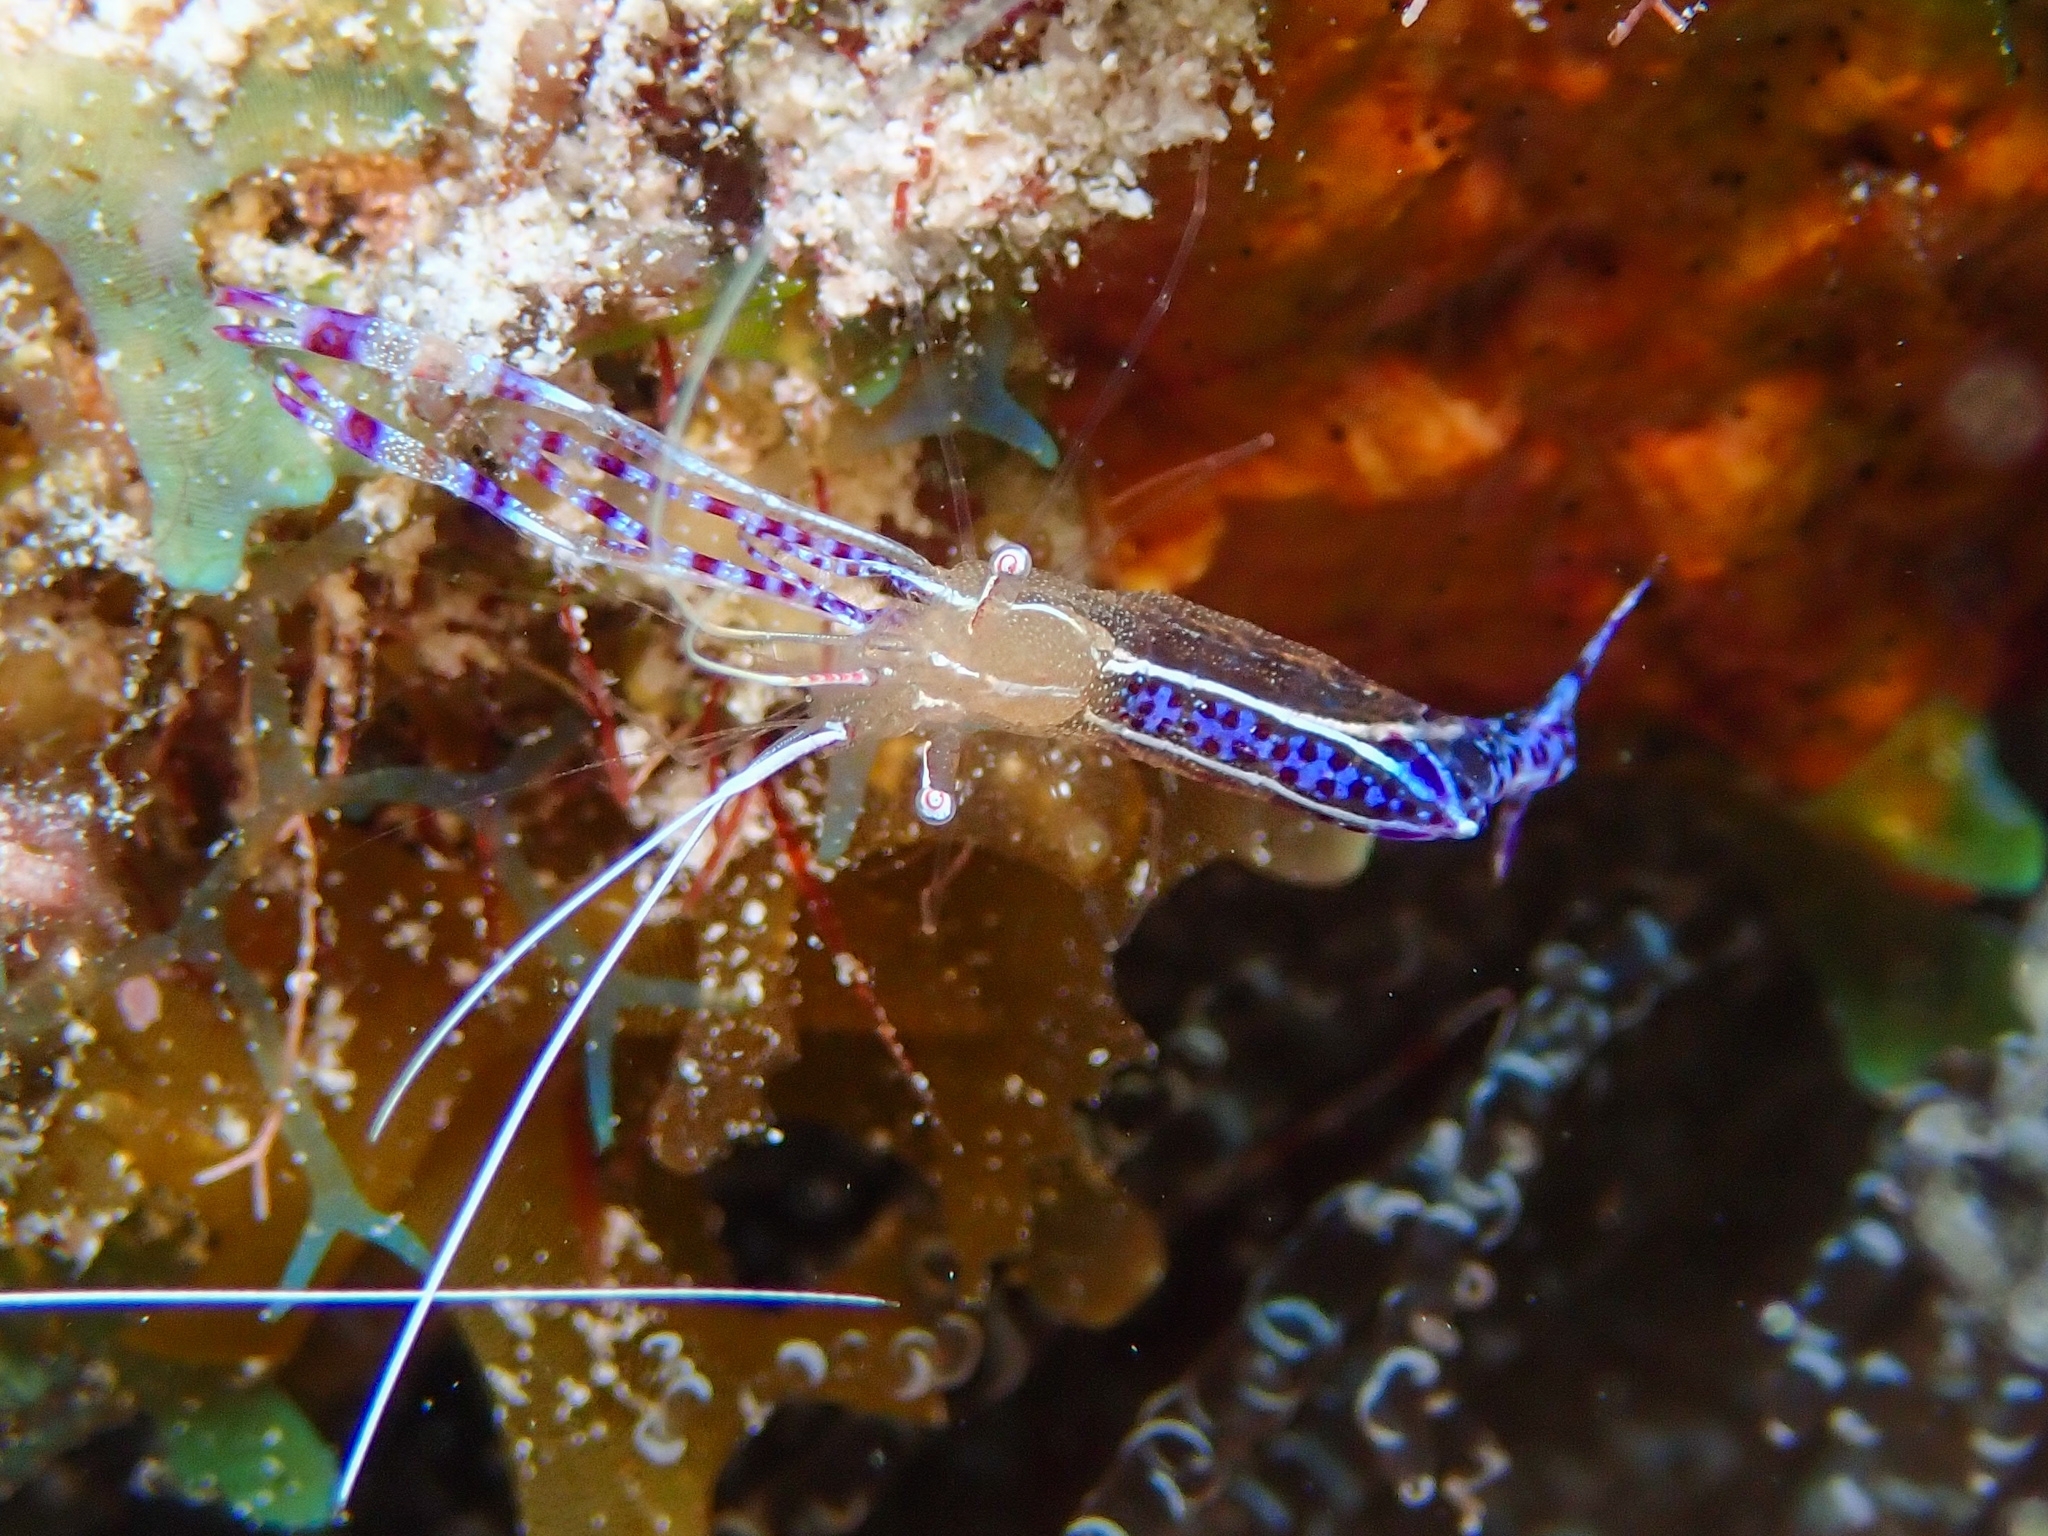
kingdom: Animalia
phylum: Arthropoda
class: Malacostraca
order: Decapoda
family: Palaemonidae
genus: Ancylomenes
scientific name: Ancylomenes pedersoni
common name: Pederson's cleaning shrimp
